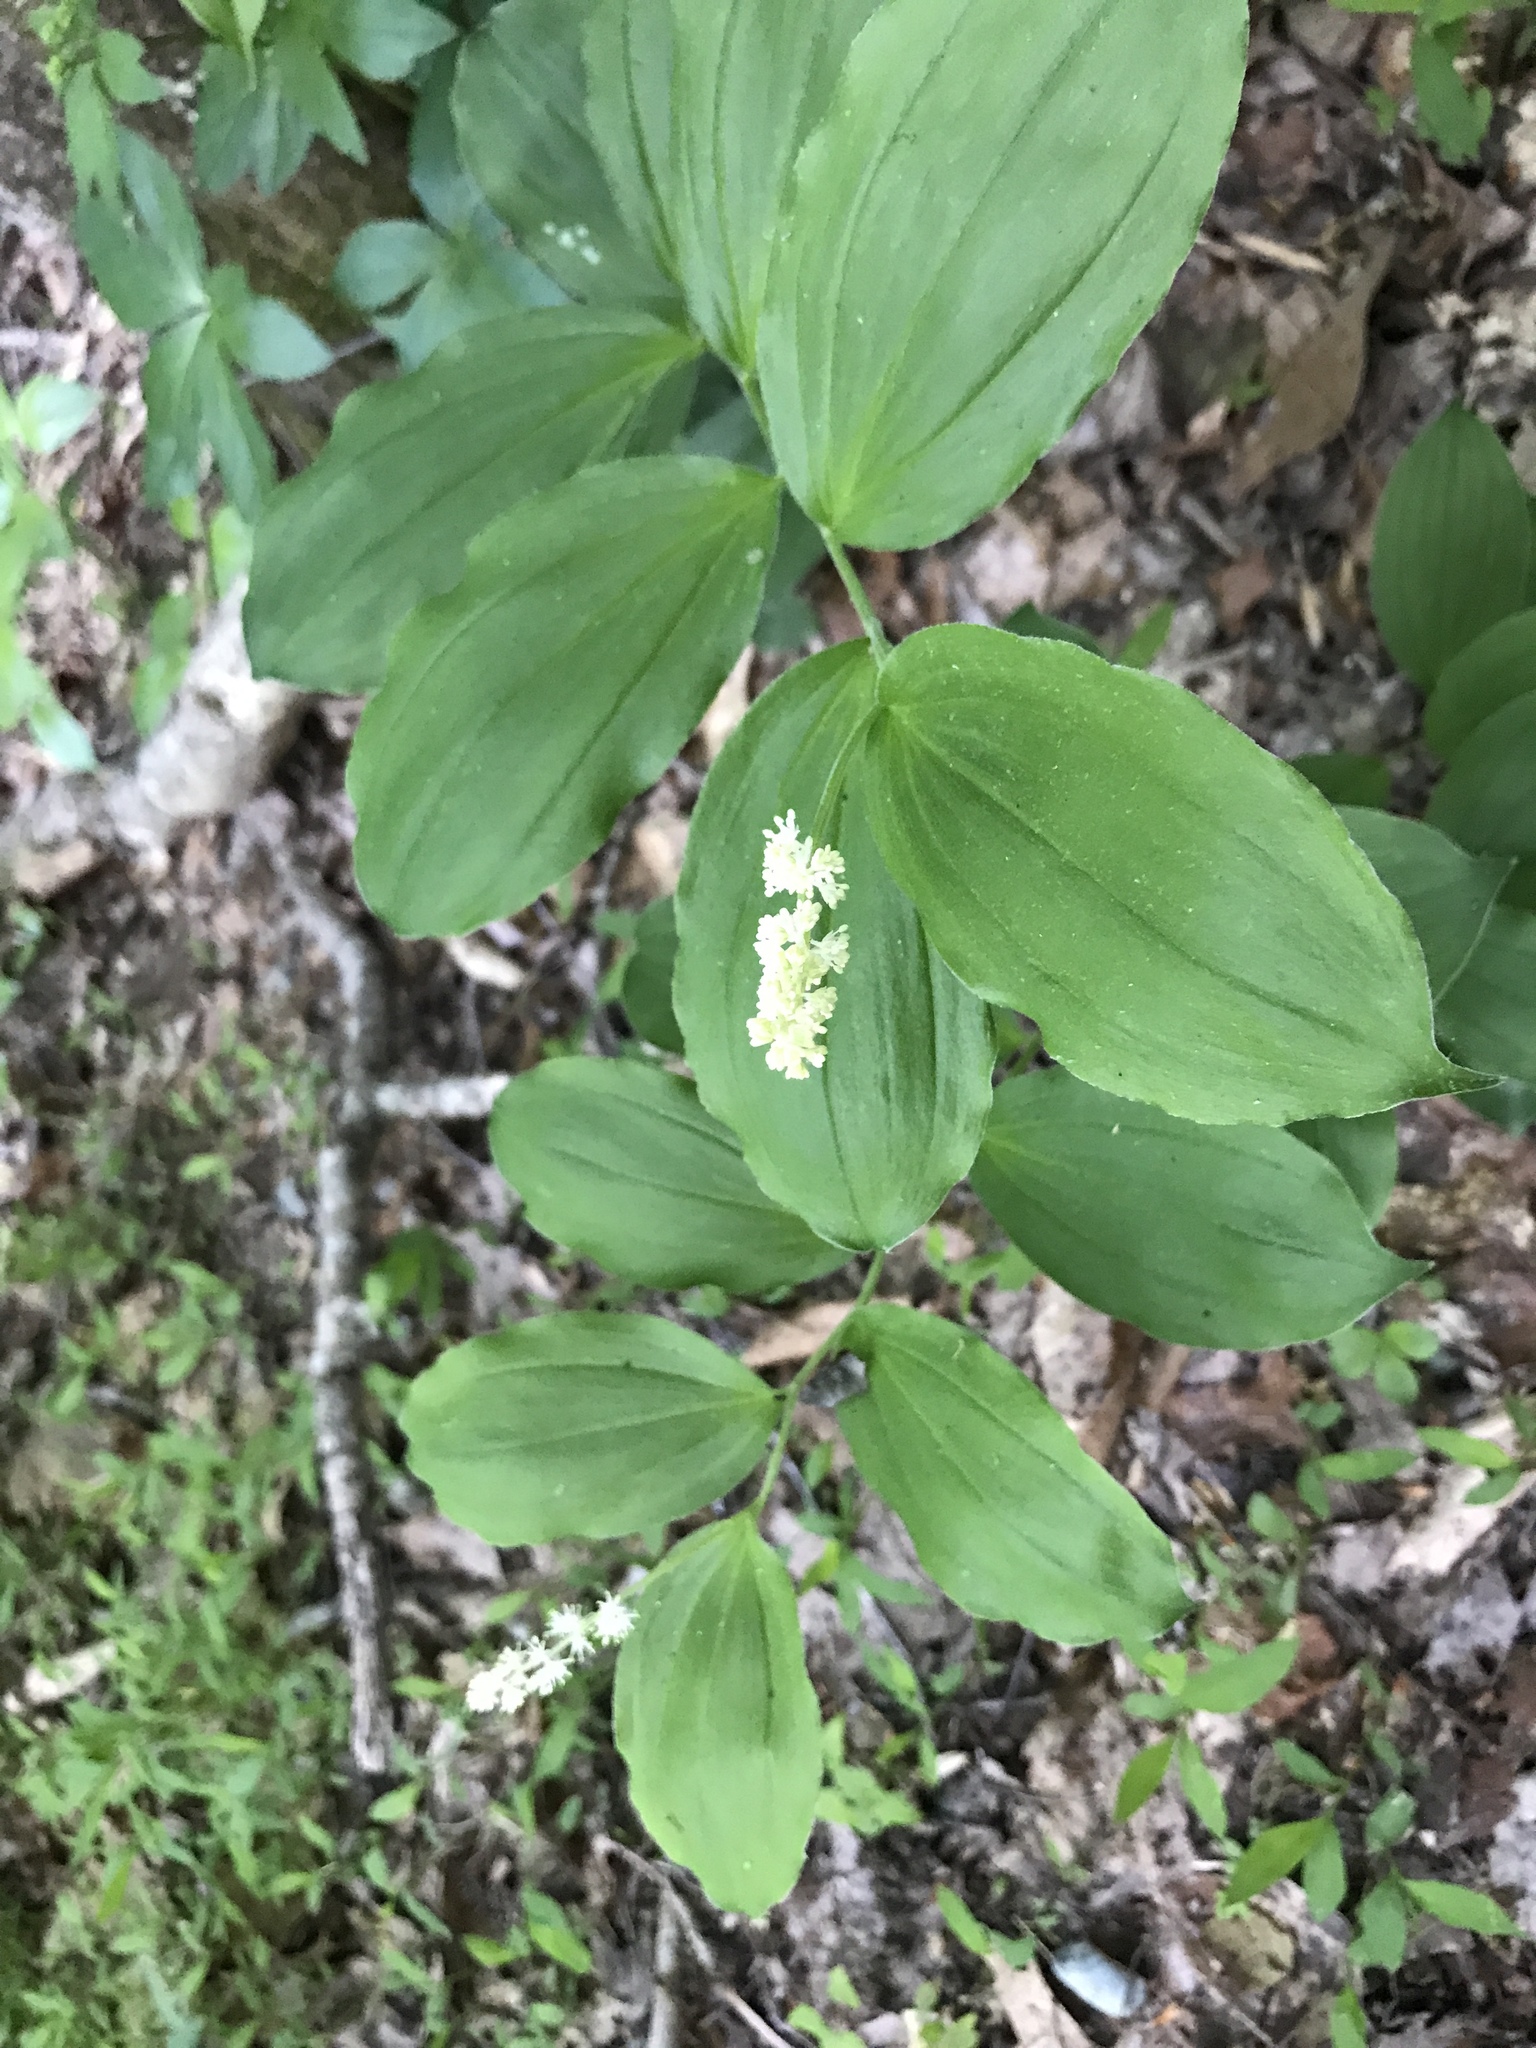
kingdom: Plantae
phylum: Tracheophyta
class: Liliopsida
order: Asparagales
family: Asparagaceae
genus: Maianthemum
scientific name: Maianthemum racemosum
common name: False spikenard
